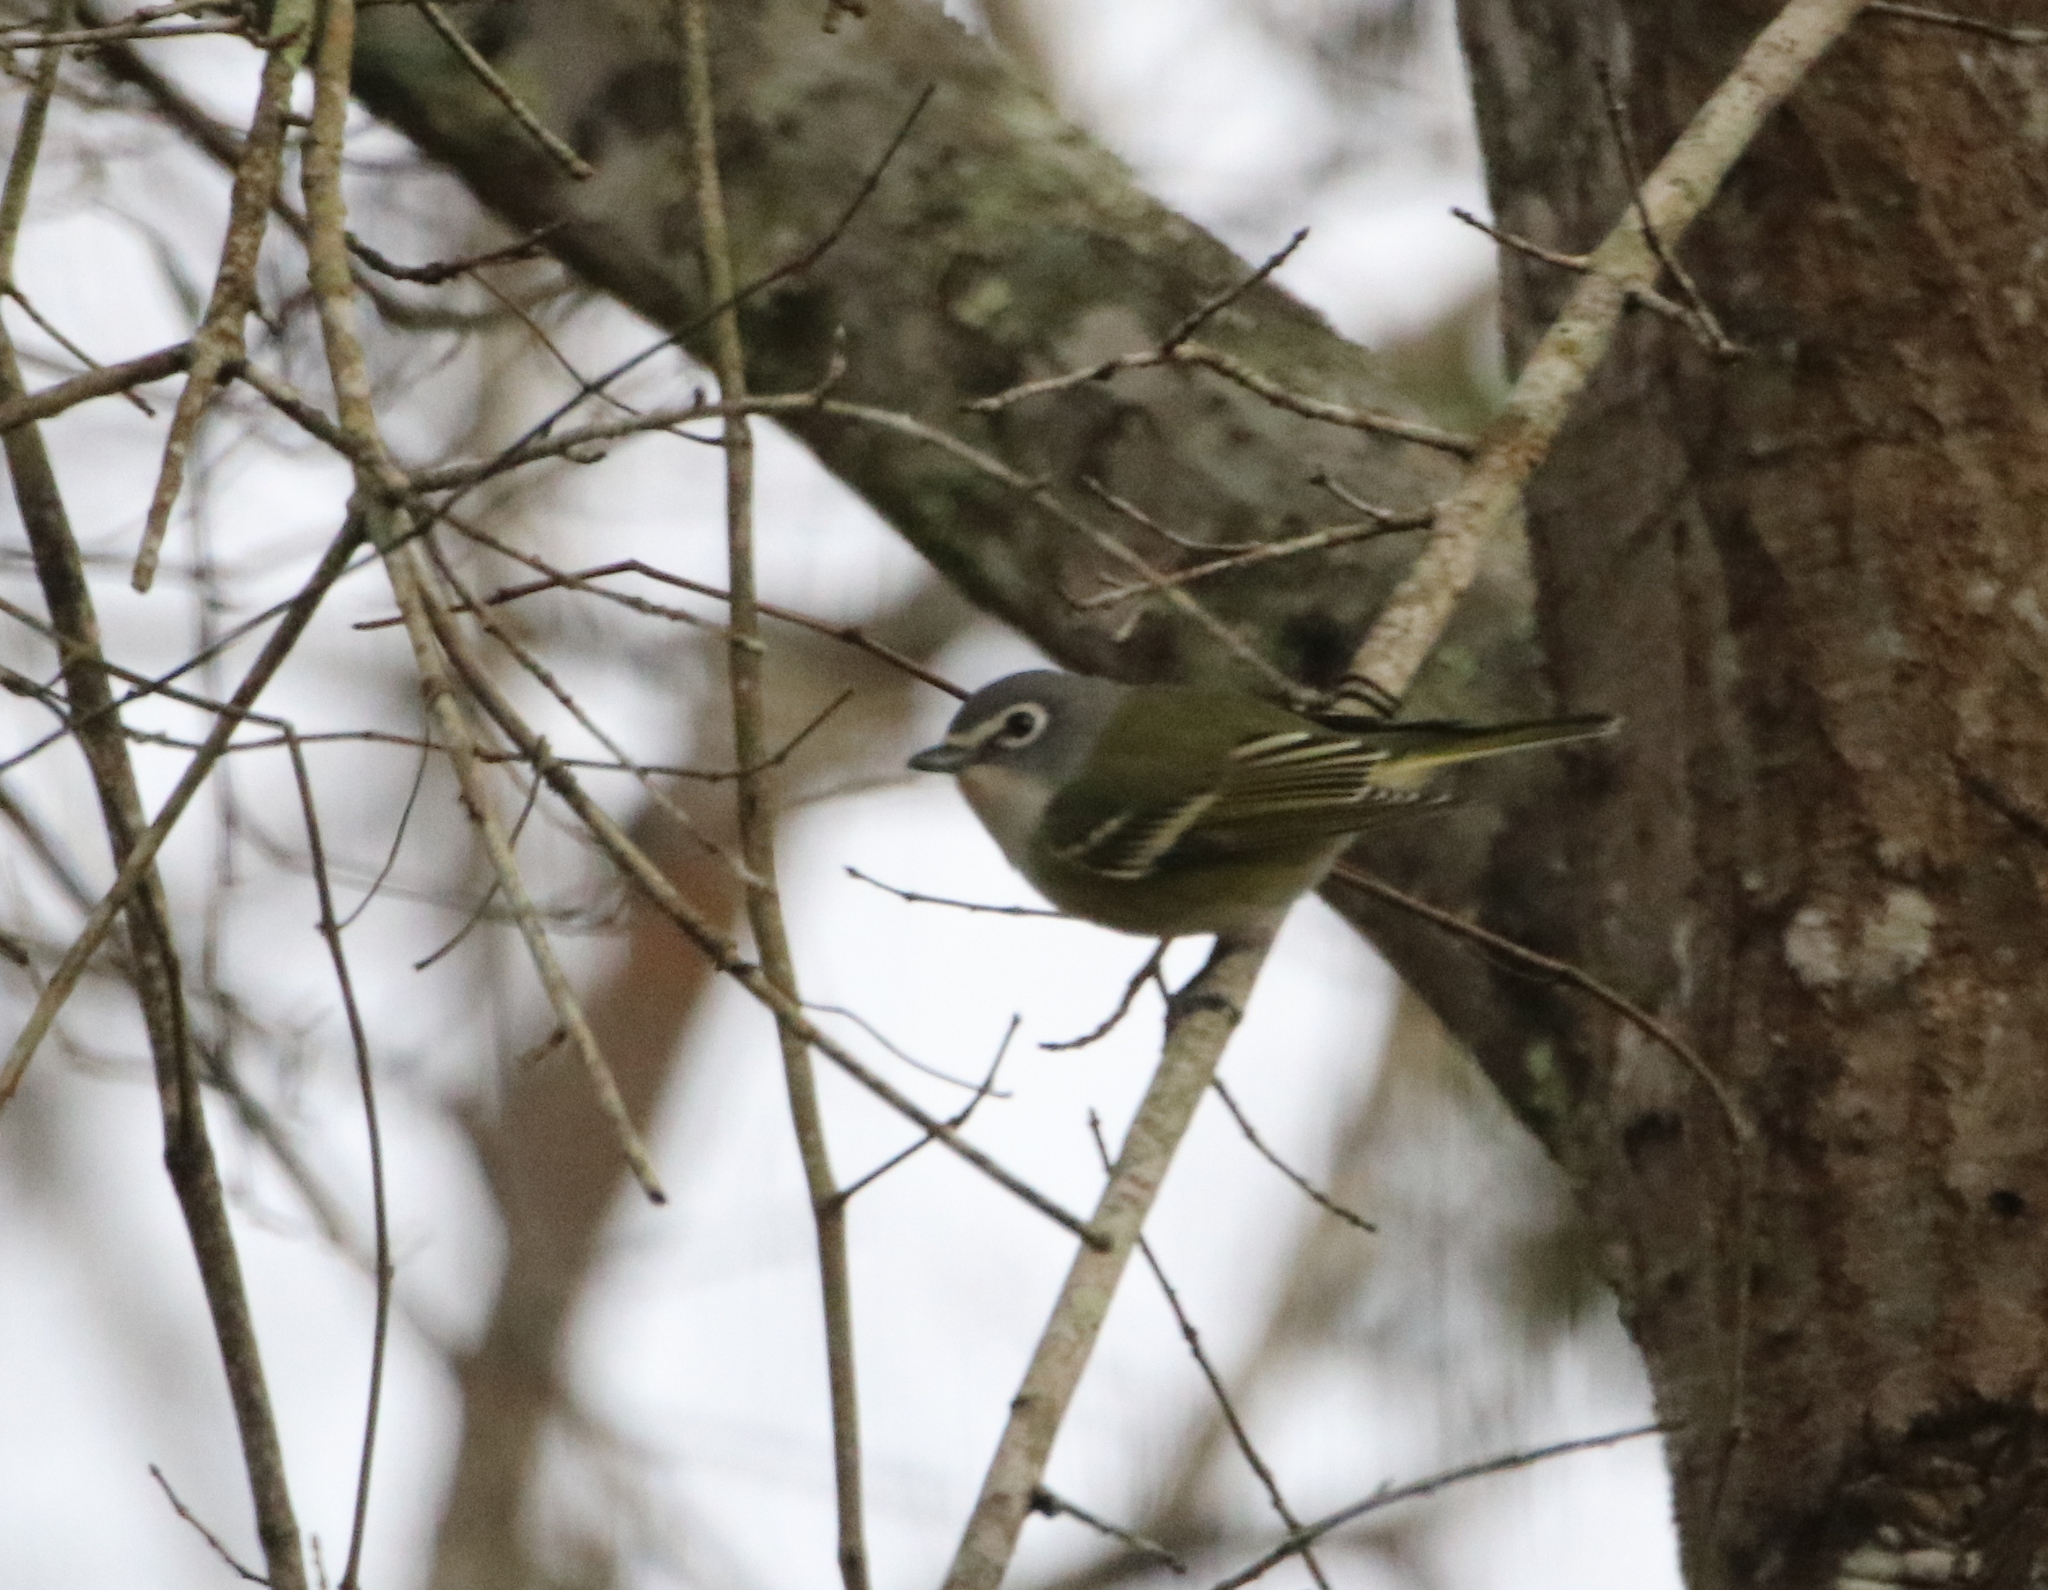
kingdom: Animalia
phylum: Chordata
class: Aves
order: Passeriformes
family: Vireonidae
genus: Vireo
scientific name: Vireo solitarius
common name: Blue-headed vireo
